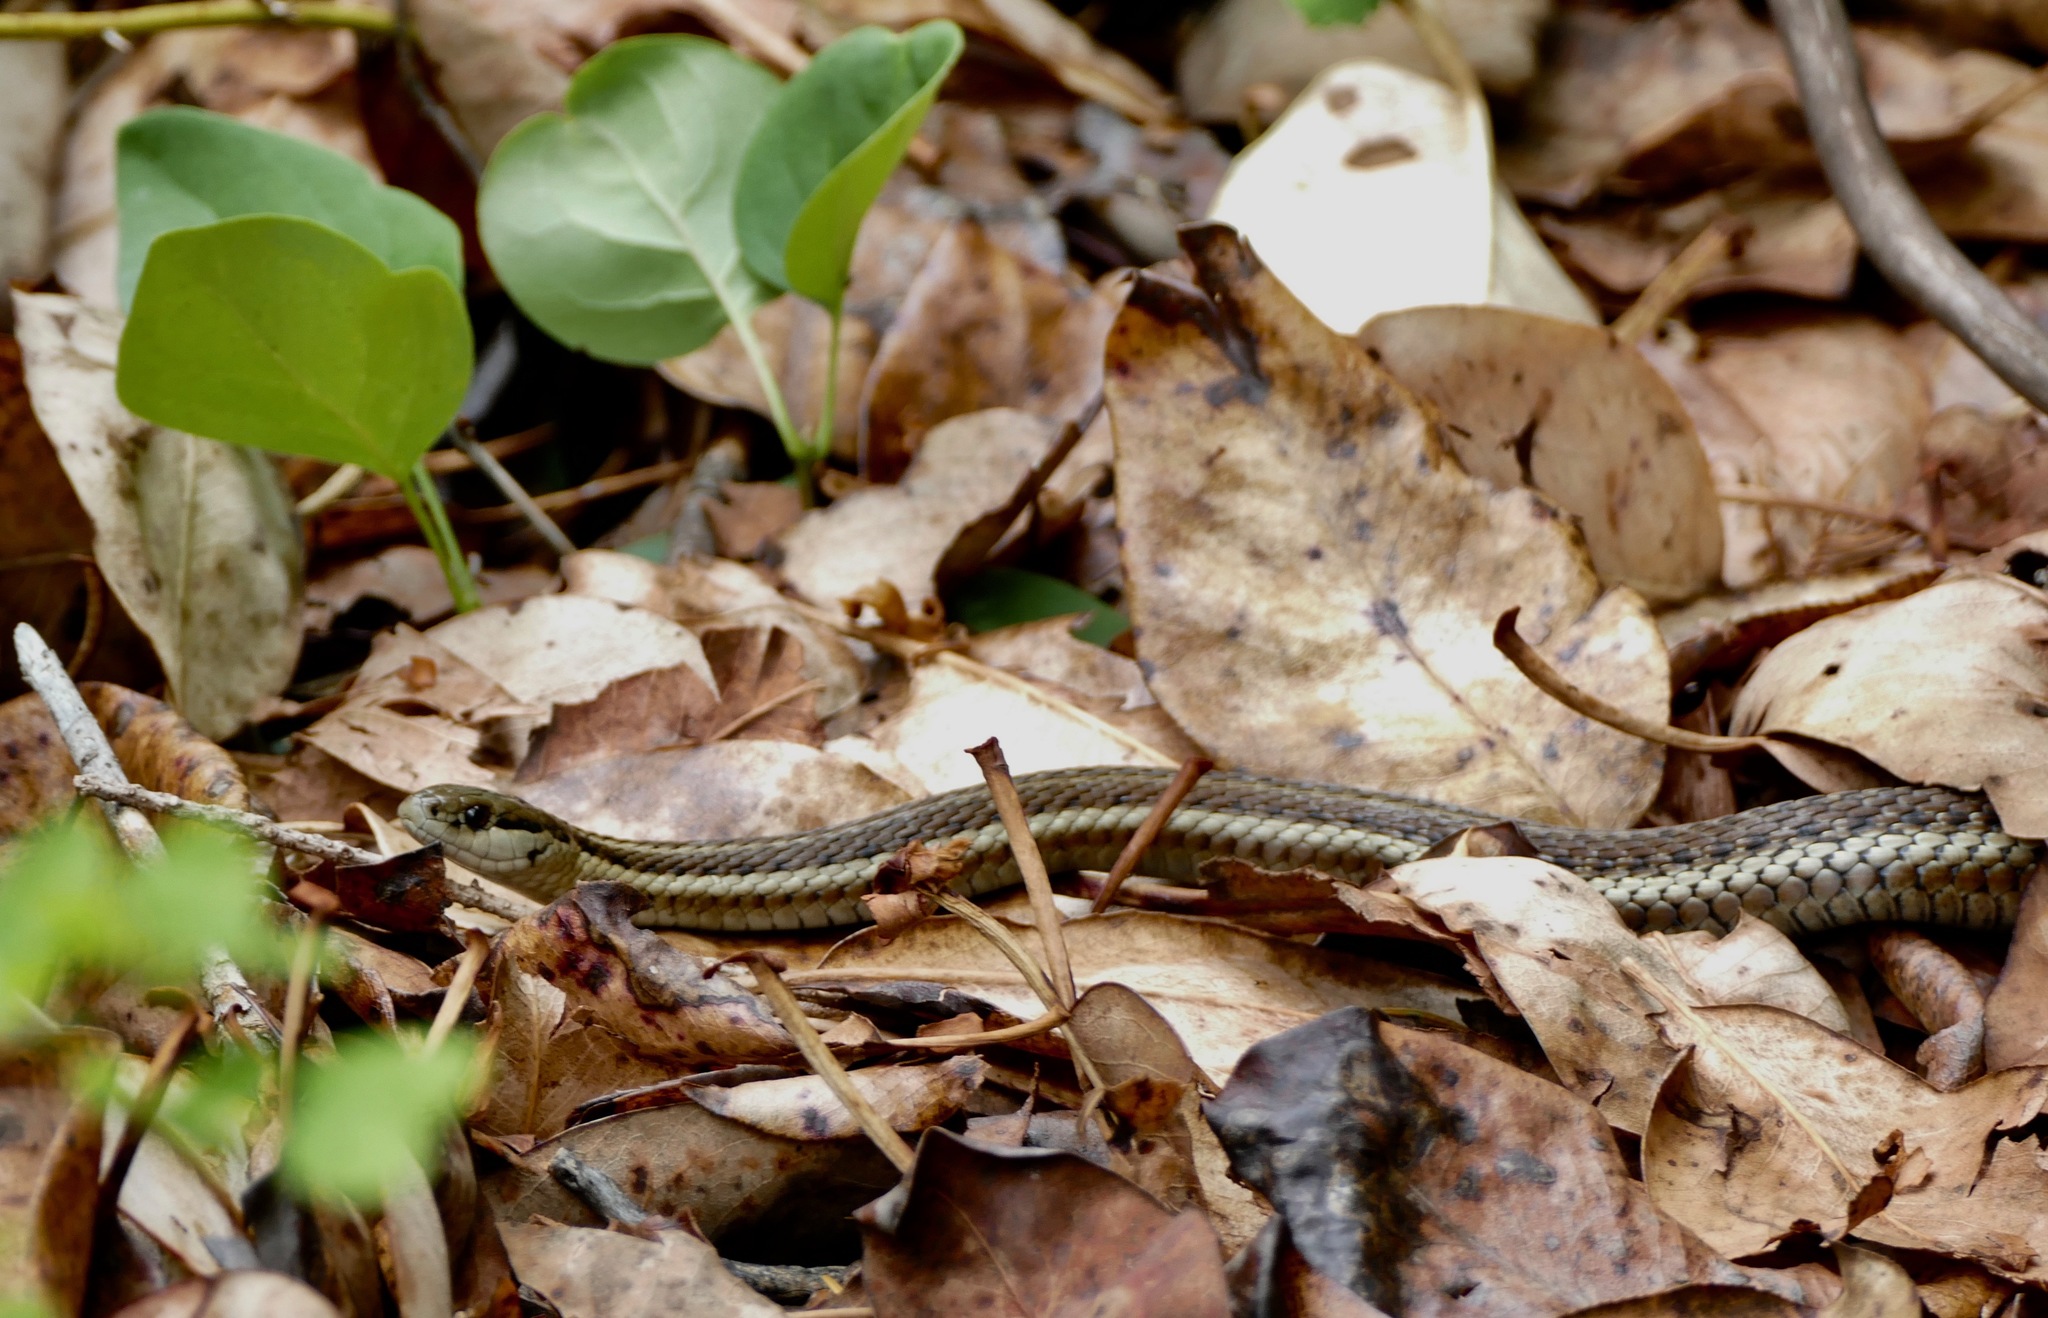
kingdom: Animalia
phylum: Chordata
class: Squamata
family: Colubridae
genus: Thamnophis
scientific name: Thamnophis ordinoides
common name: Northwestern garter snake
